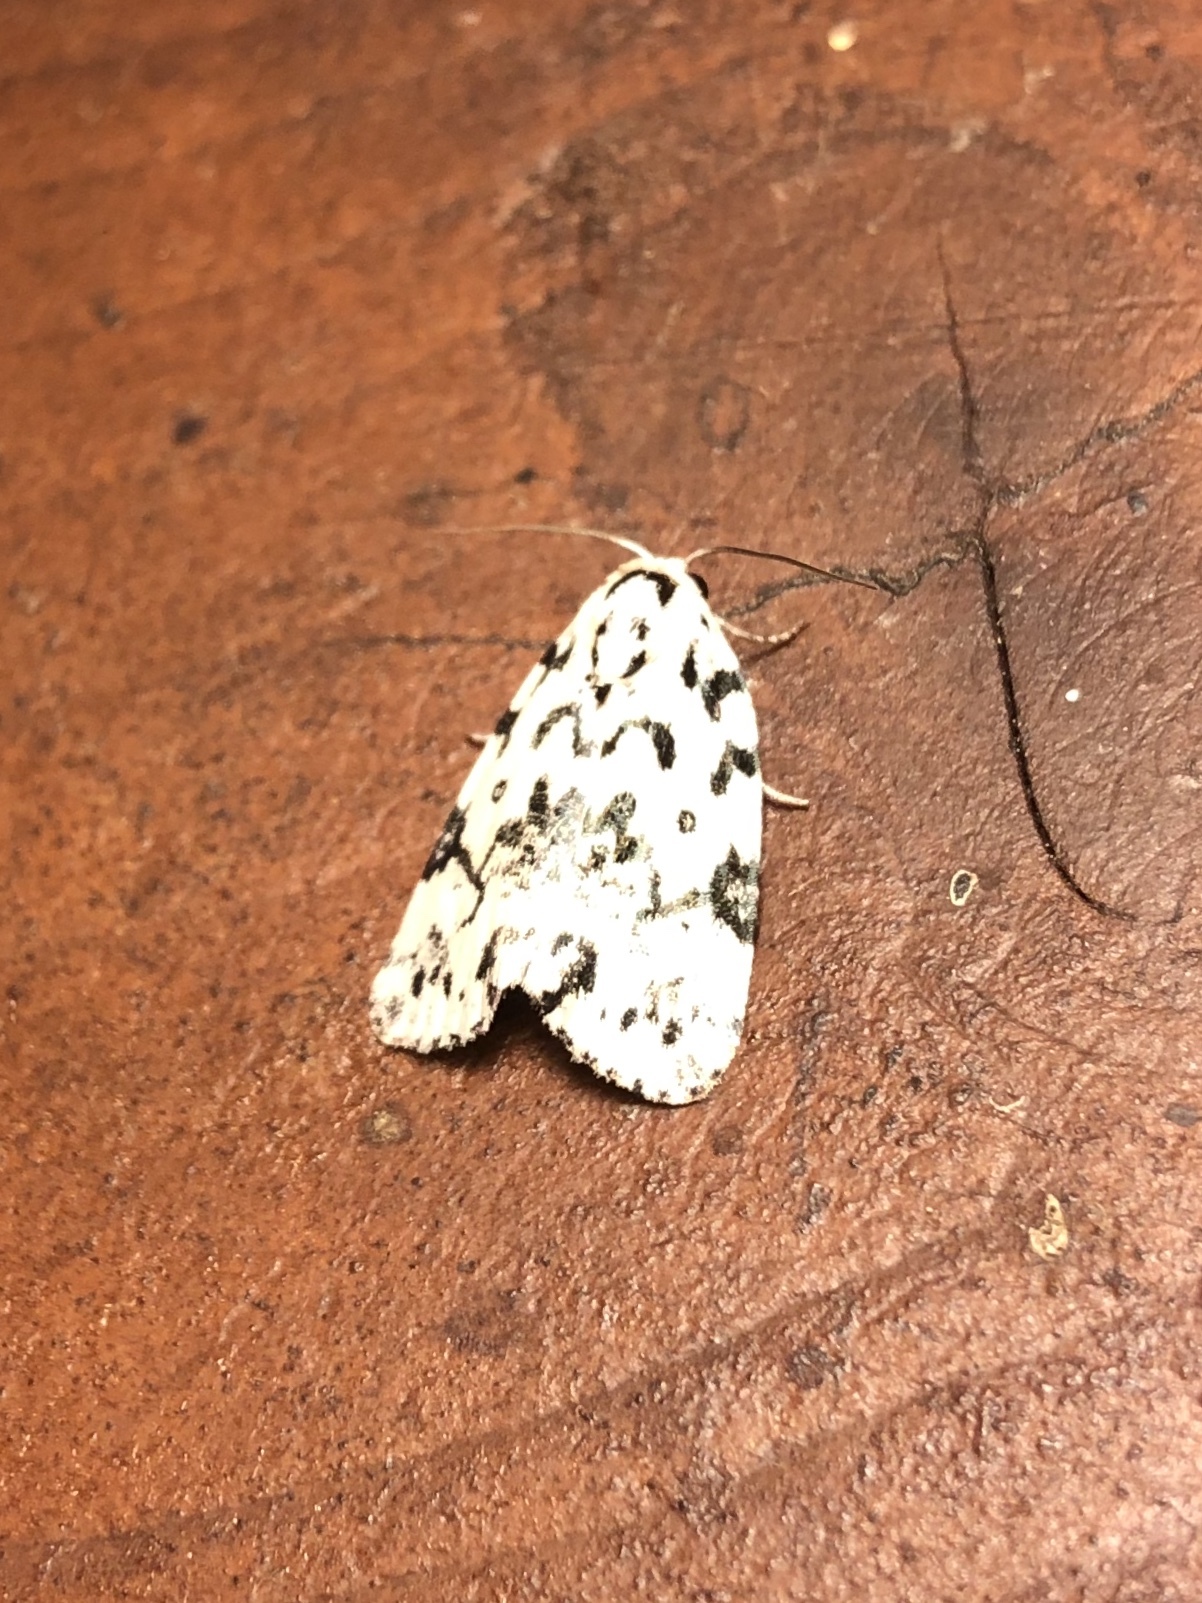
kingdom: Animalia
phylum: Arthropoda
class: Insecta
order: Lepidoptera
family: Noctuidae
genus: Polygrammate
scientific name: Polygrammate hebraeicum
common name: Hebrew moth
